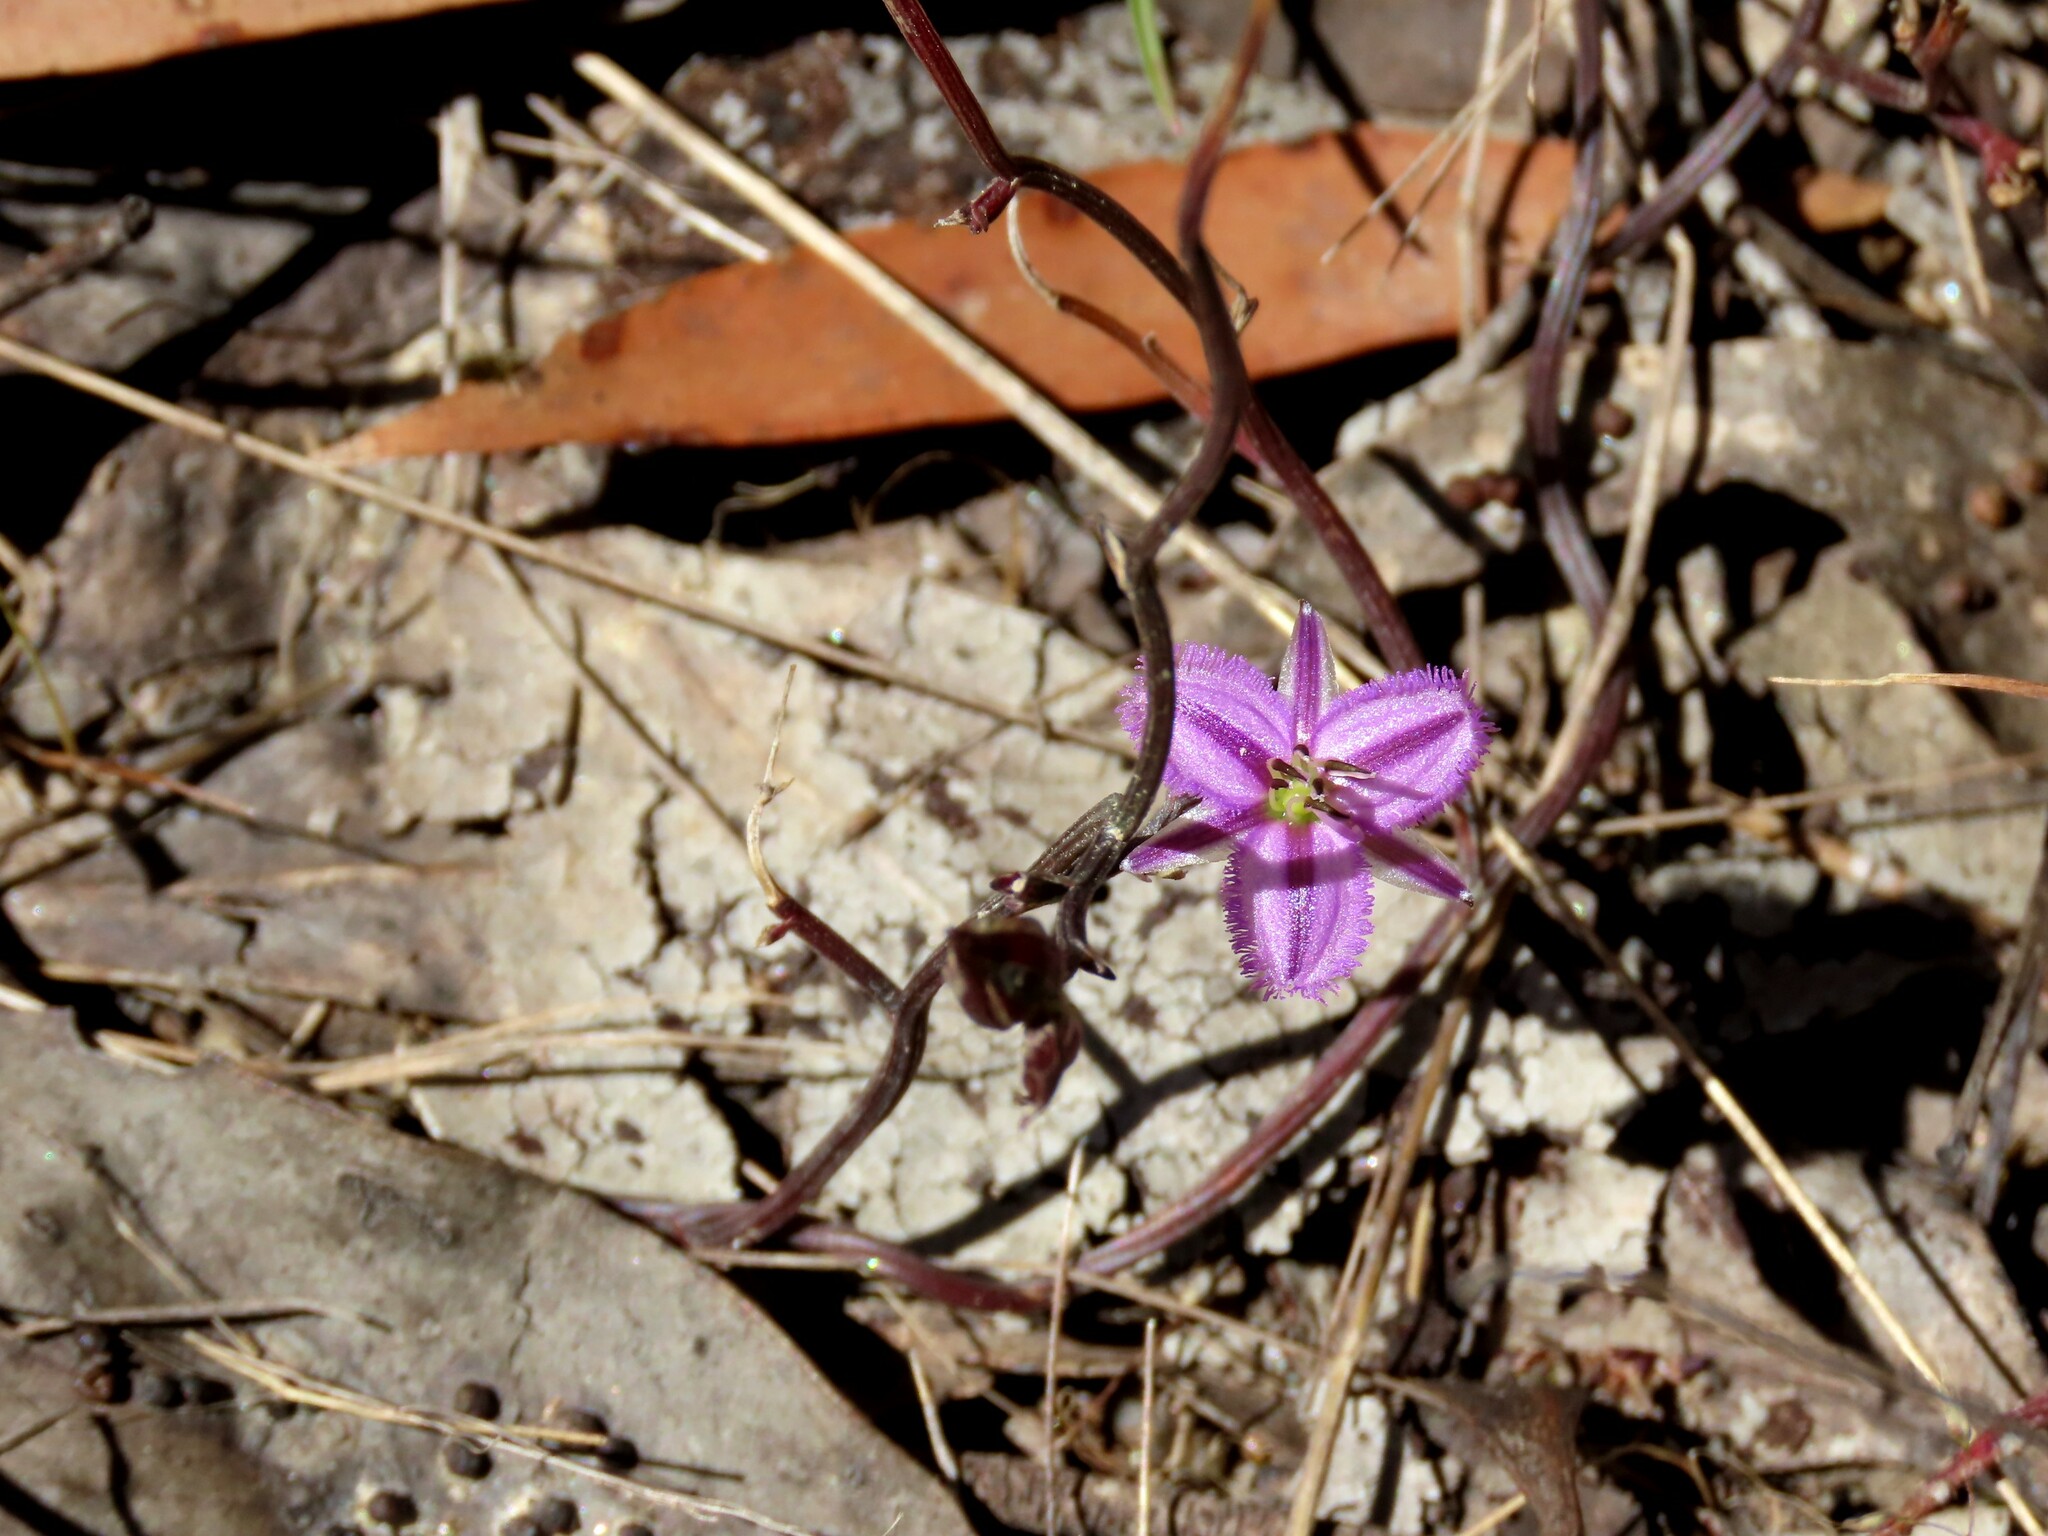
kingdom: Plantae
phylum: Tracheophyta
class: Liliopsida
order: Asparagales
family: Asparagaceae
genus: Thysanotus
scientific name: Thysanotus patersonii
